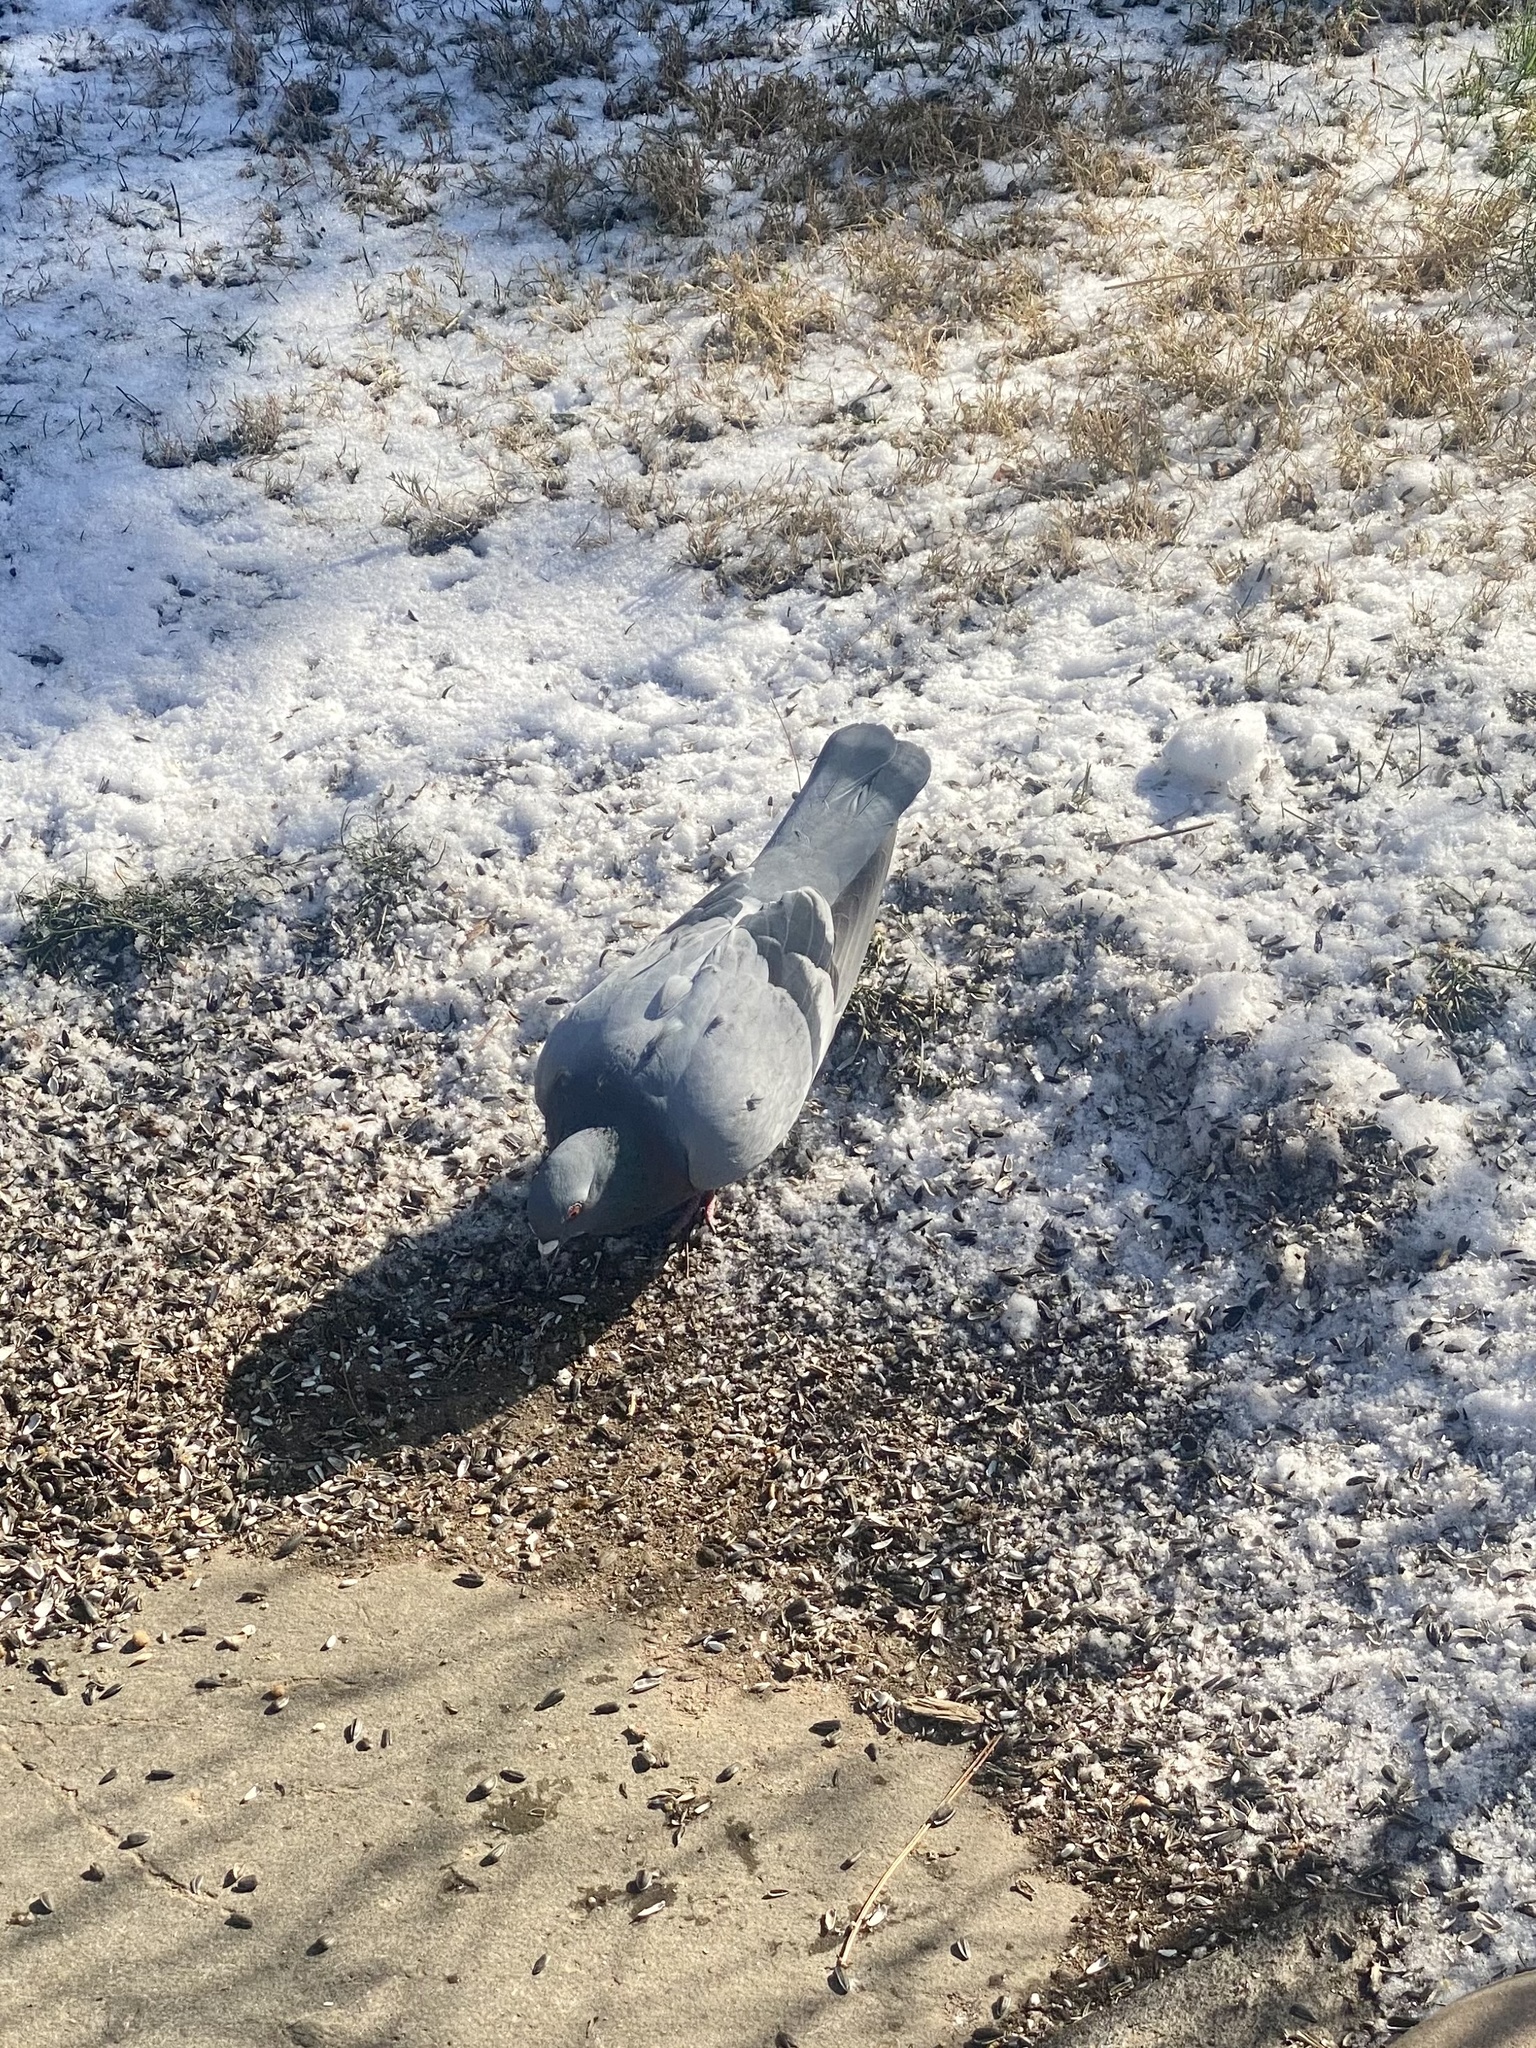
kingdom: Animalia
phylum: Chordata
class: Aves
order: Columbiformes
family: Columbidae
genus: Columba
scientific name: Columba livia
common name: Rock pigeon
